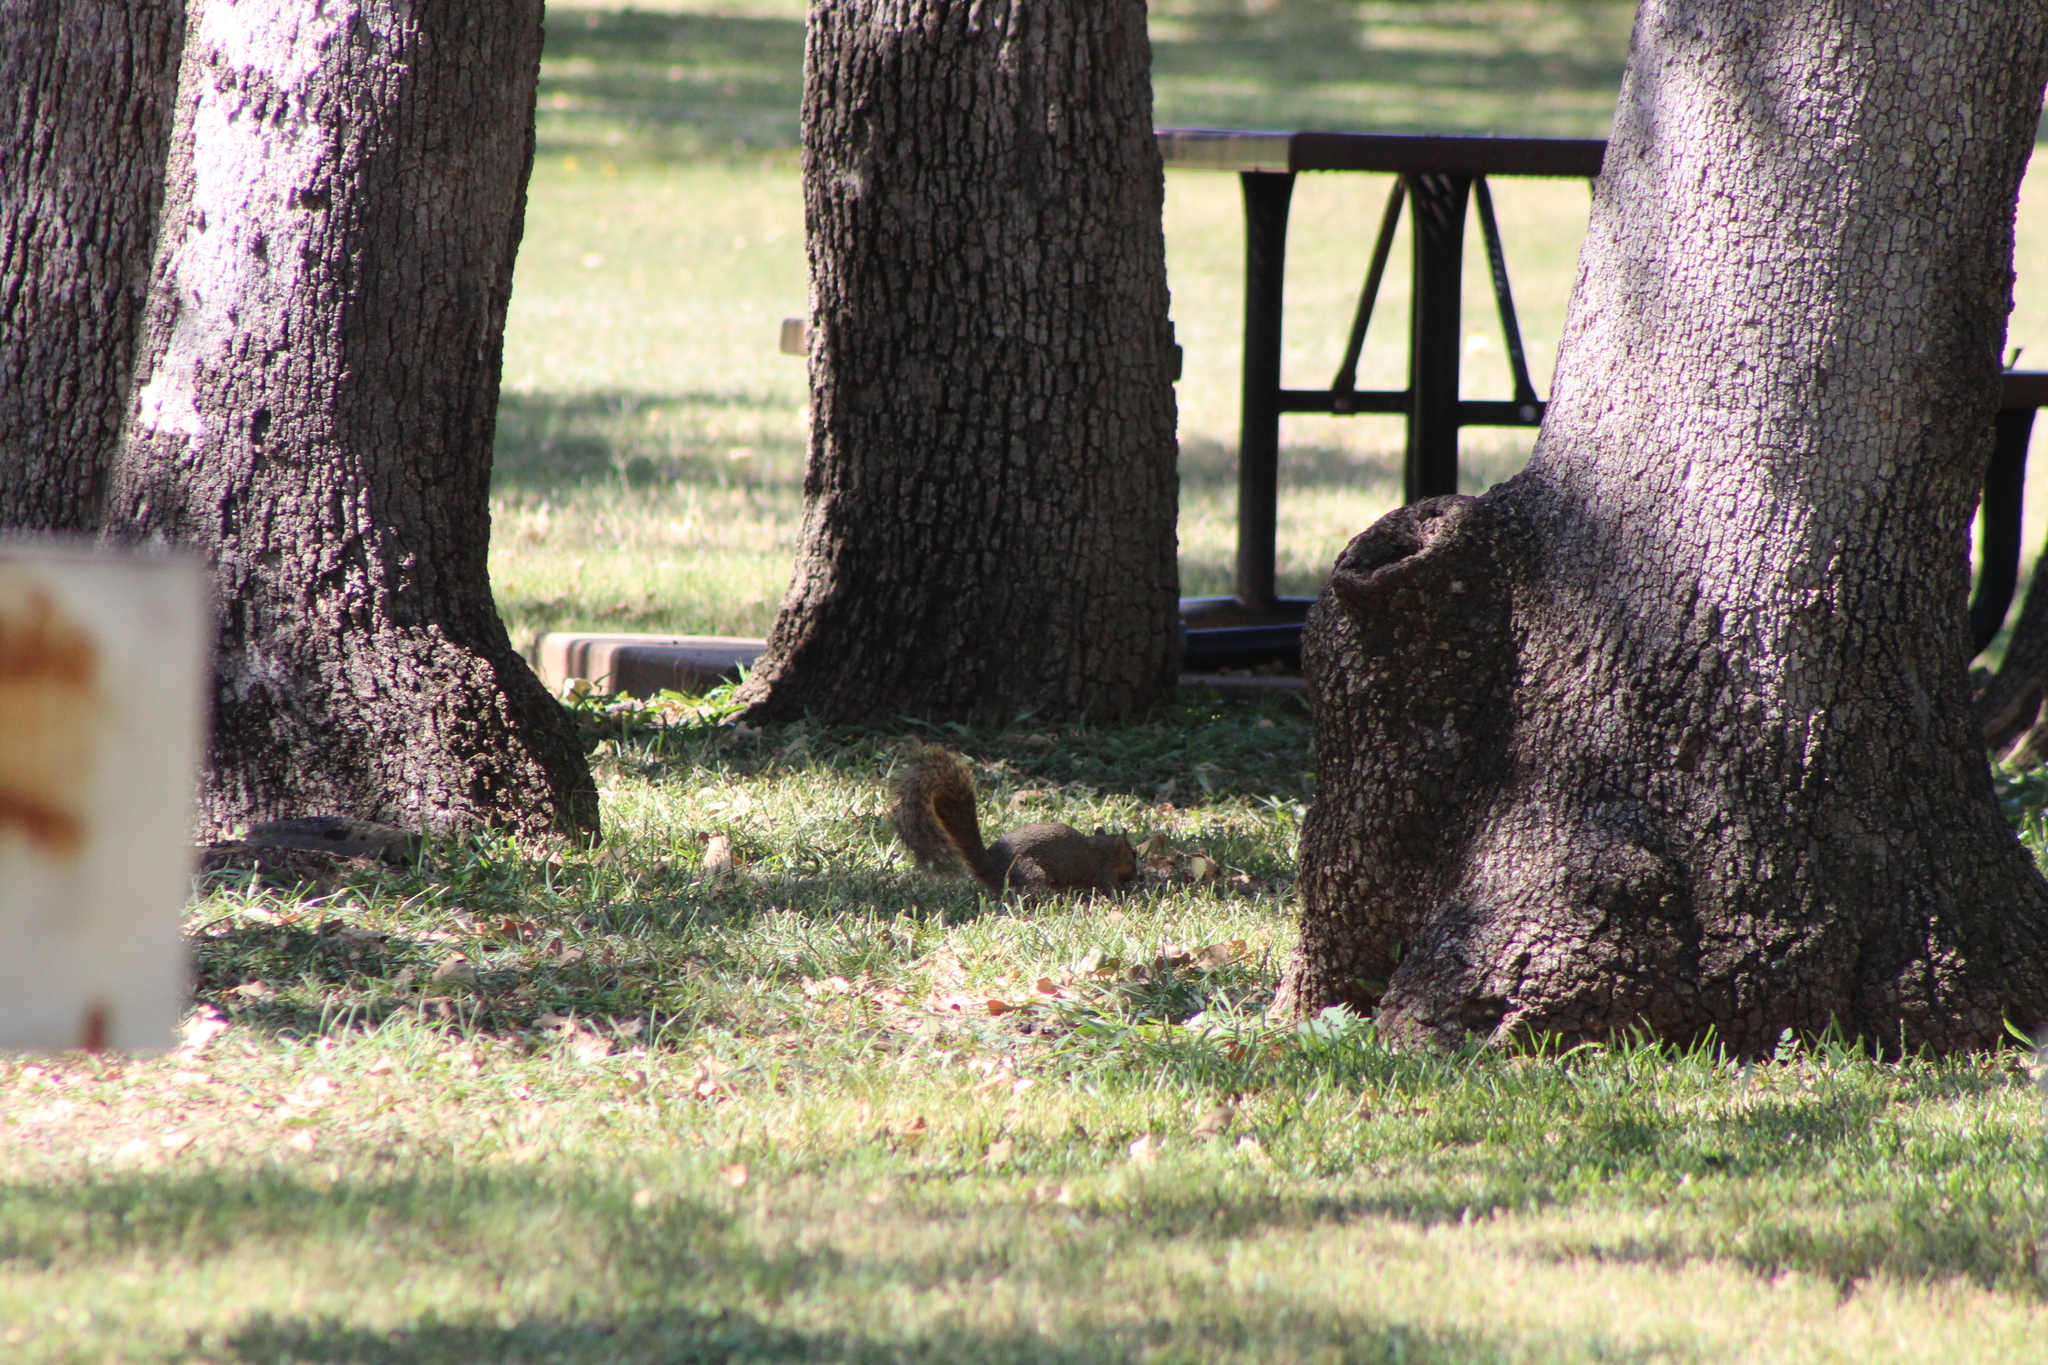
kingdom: Animalia
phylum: Chordata
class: Mammalia
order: Rodentia
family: Sciuridae
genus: Sciurus
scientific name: Sciurus niger
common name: Fox squirrel
